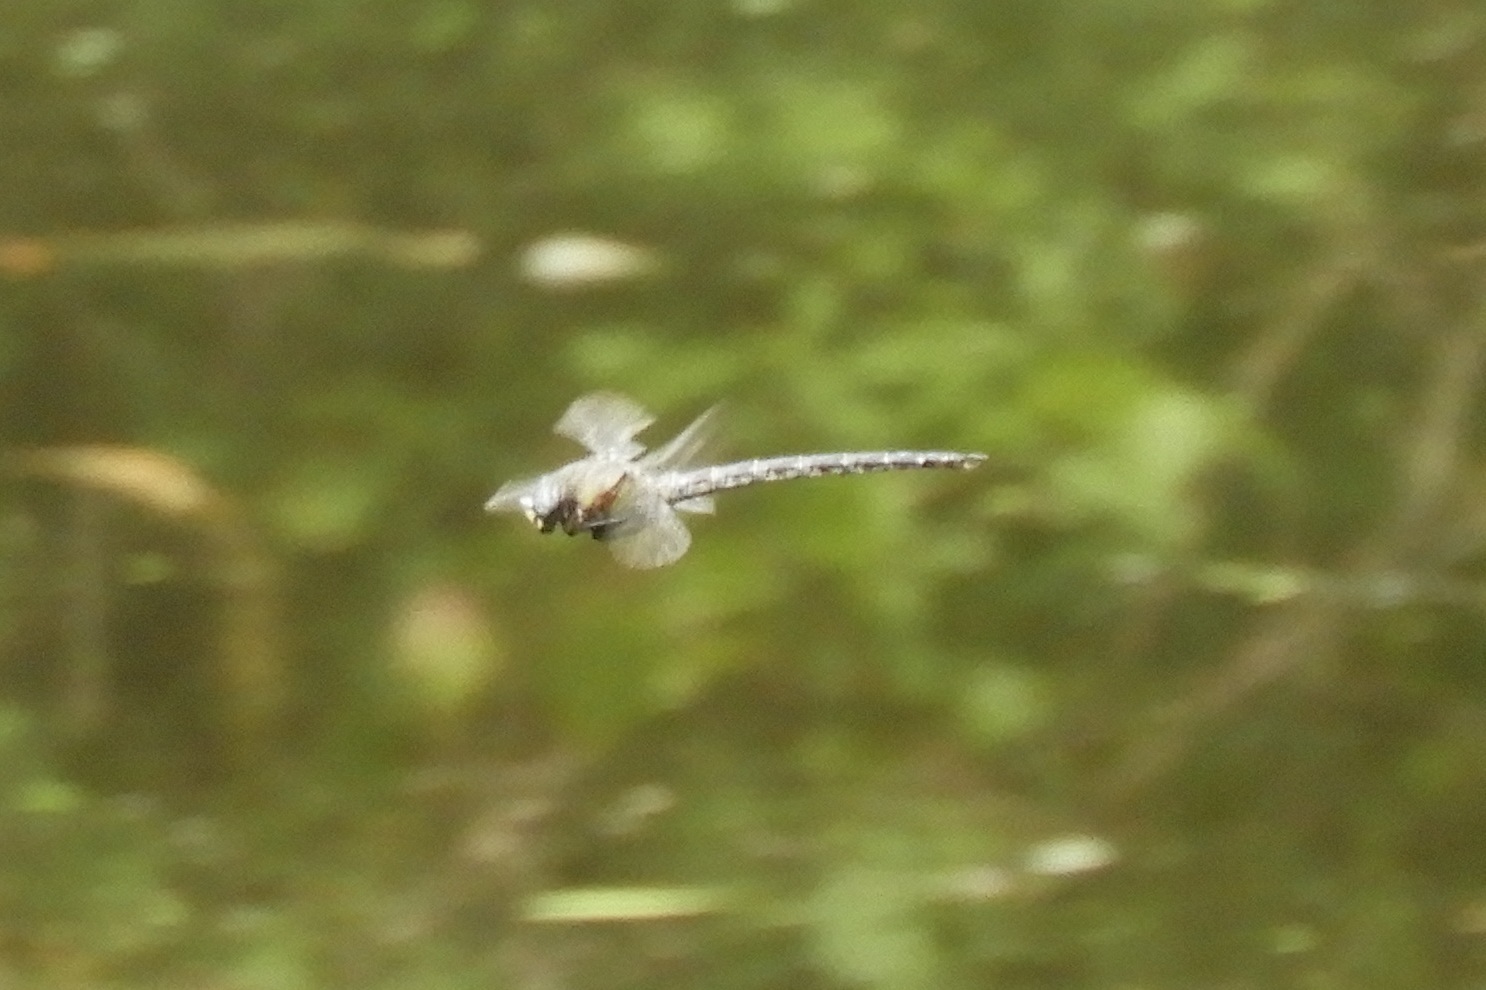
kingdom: Animalia
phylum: Arthropoda
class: Insecta
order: Odonata
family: Aeshnidae
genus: Nasiaeschna
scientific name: Nasiaeschna pentacantha
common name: Cyrano darner
